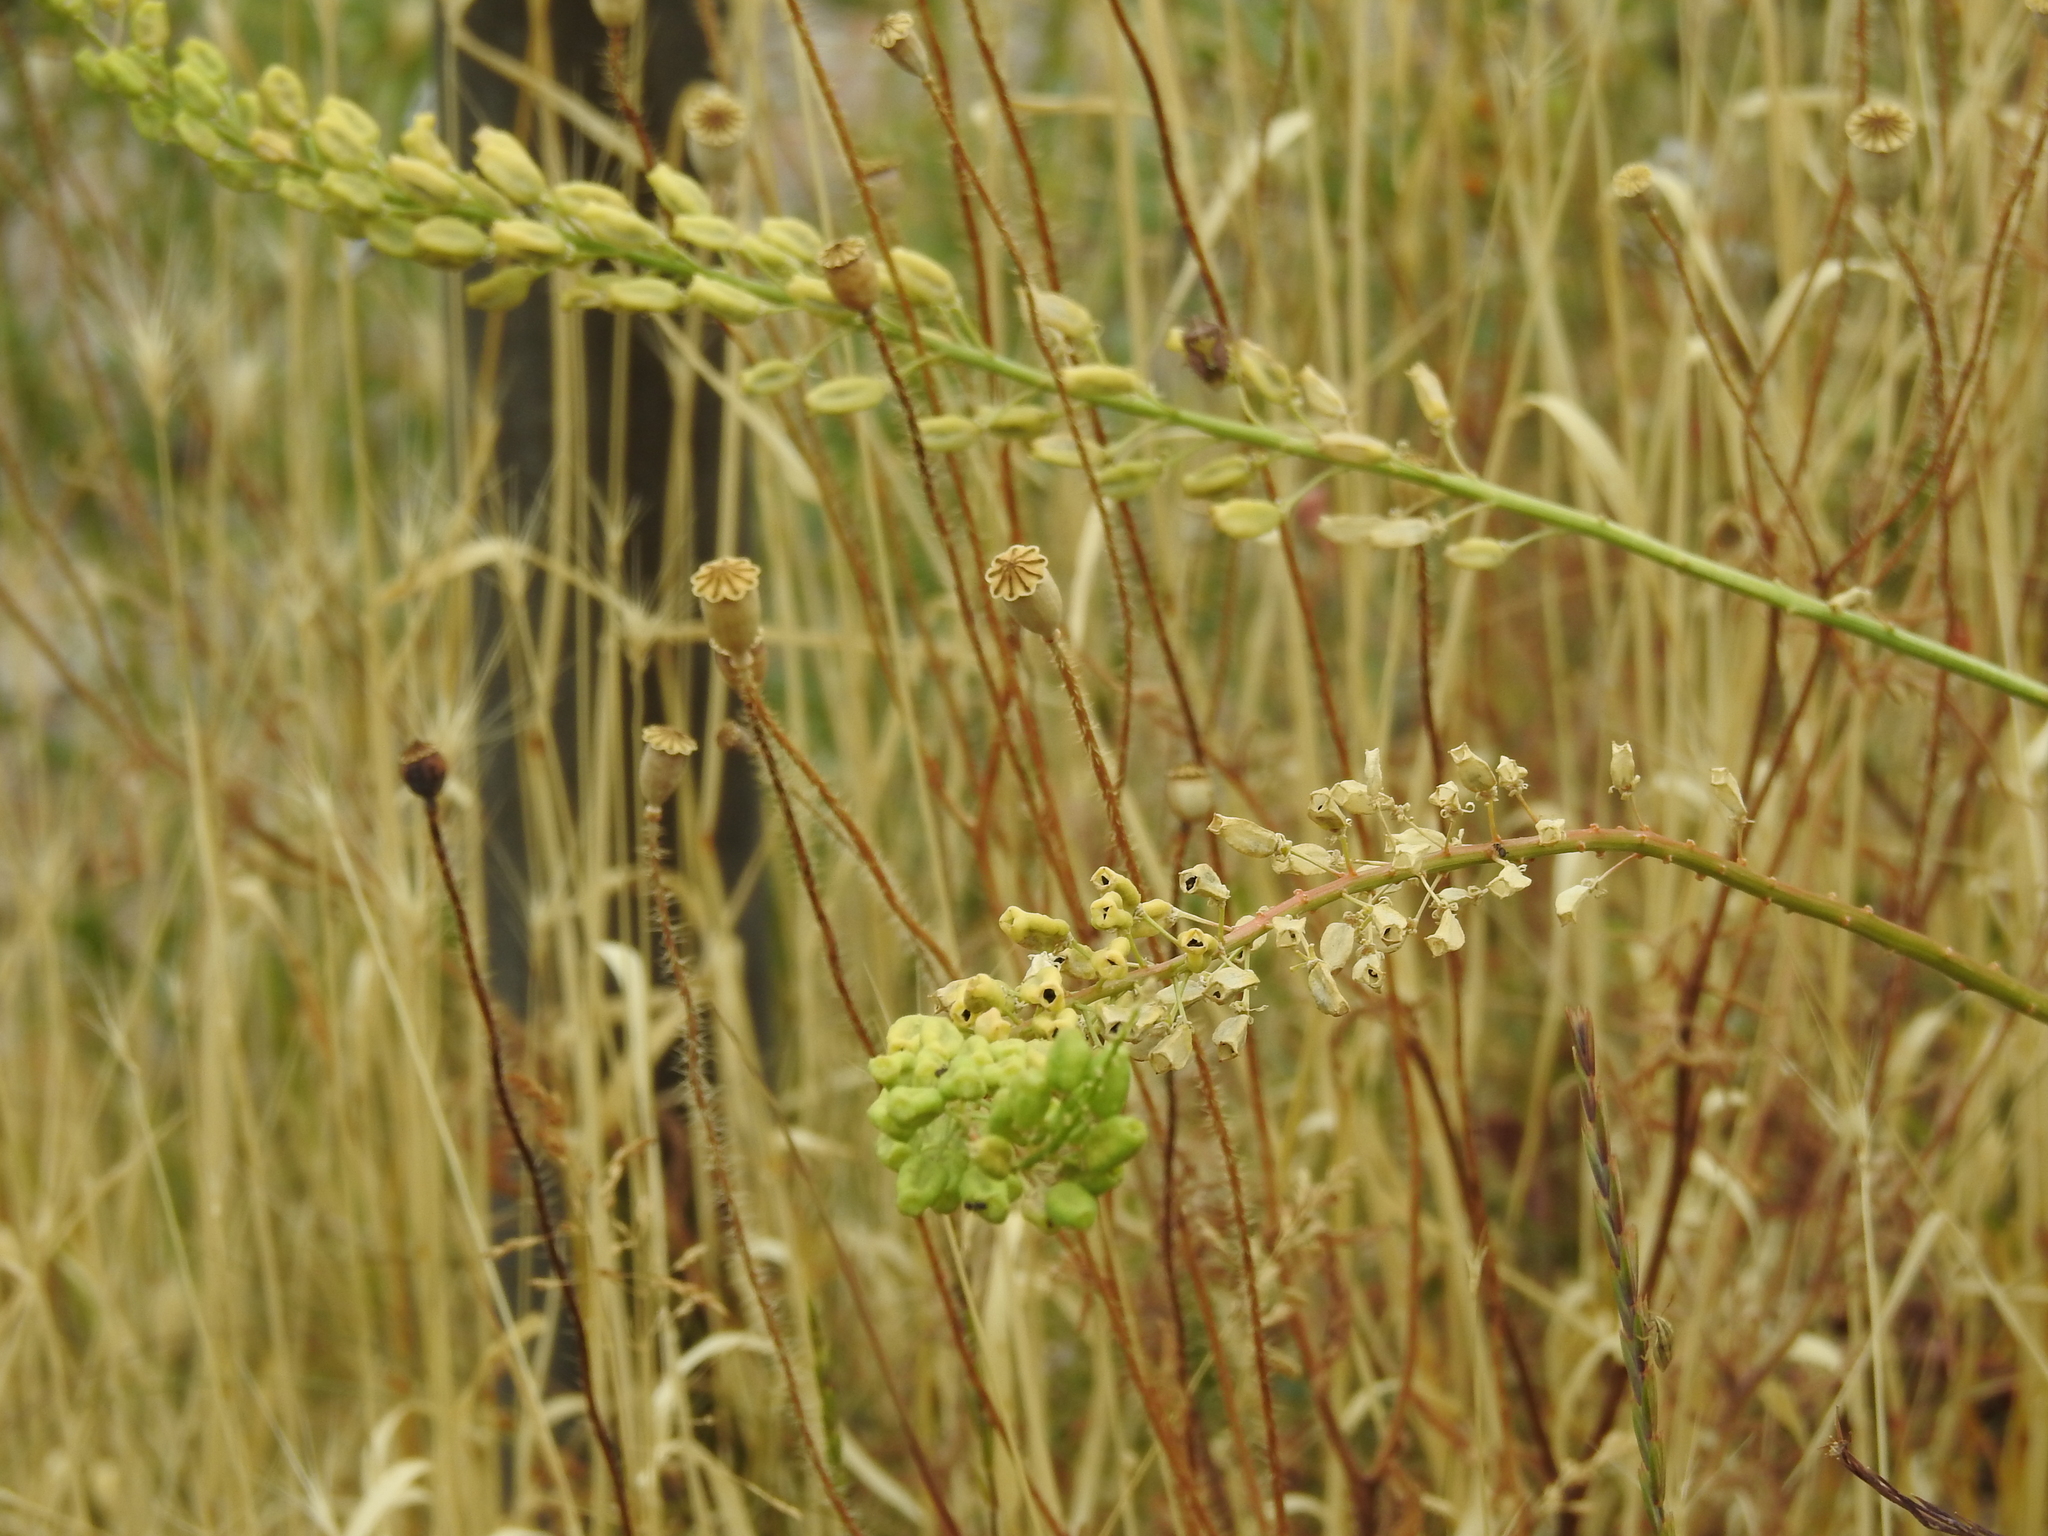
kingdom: Plantae
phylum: Tracheophyta
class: Magnoliopsida
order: Brassicales
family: Resedaceae
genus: Reseda
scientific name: Reseda lutea
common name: Wild mignonette
